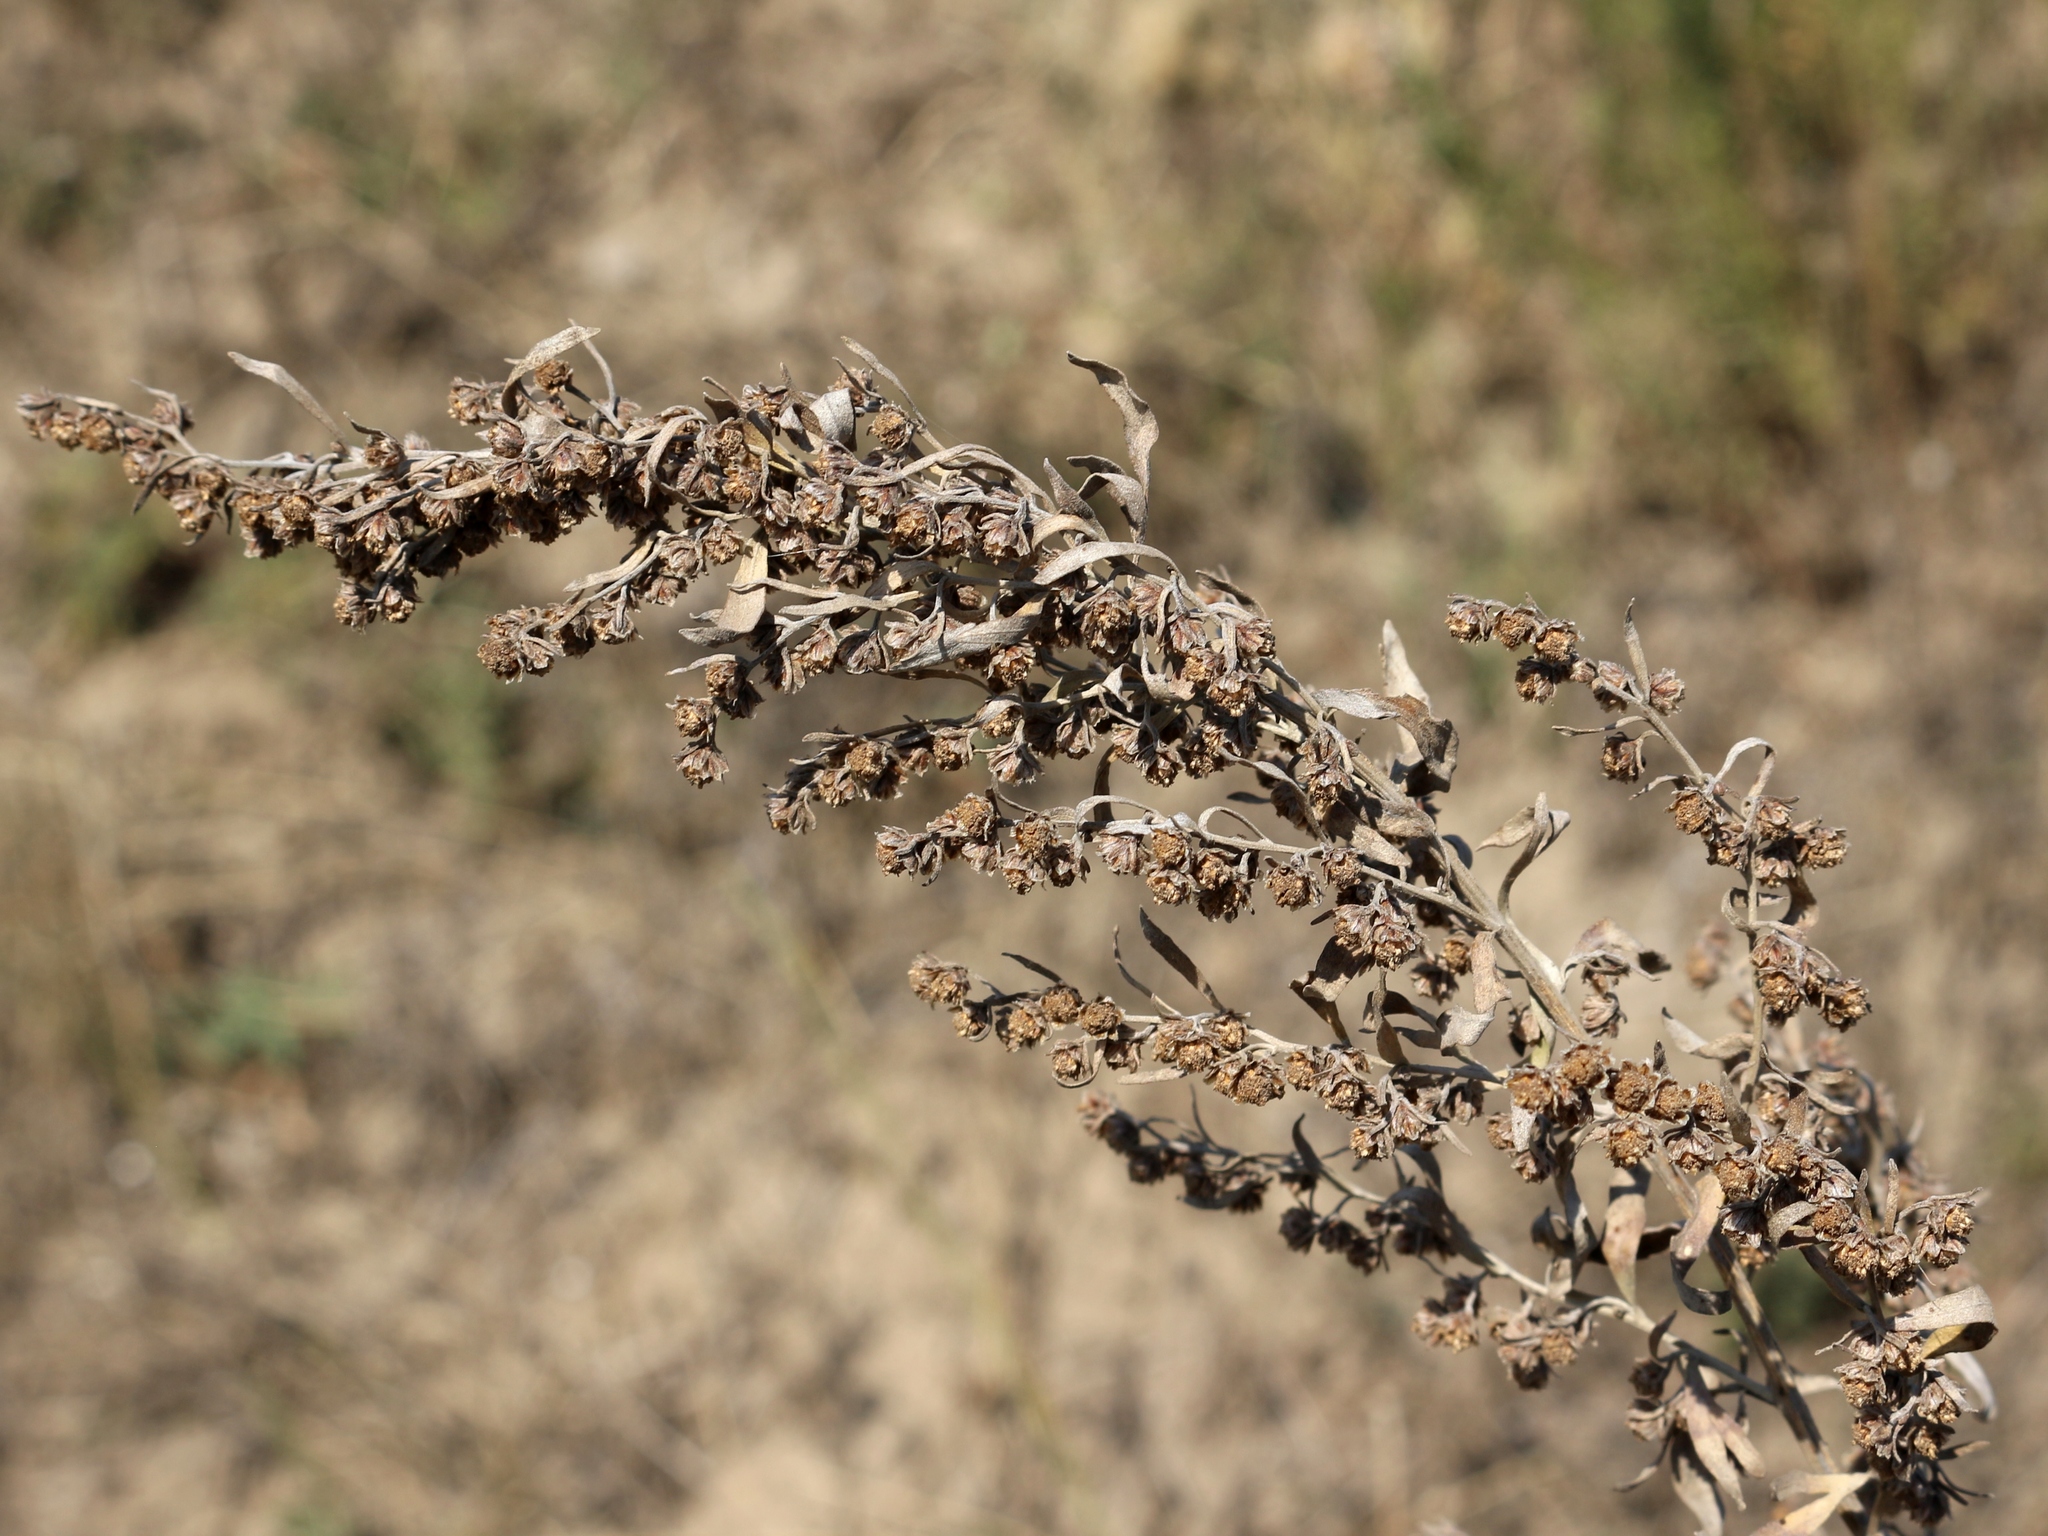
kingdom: Plantae
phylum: Tracheophyta
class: Magnoliopsida
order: Asterales
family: Asteraceae
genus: Artemisia
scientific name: Artemisia absinthium
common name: Wormwood
